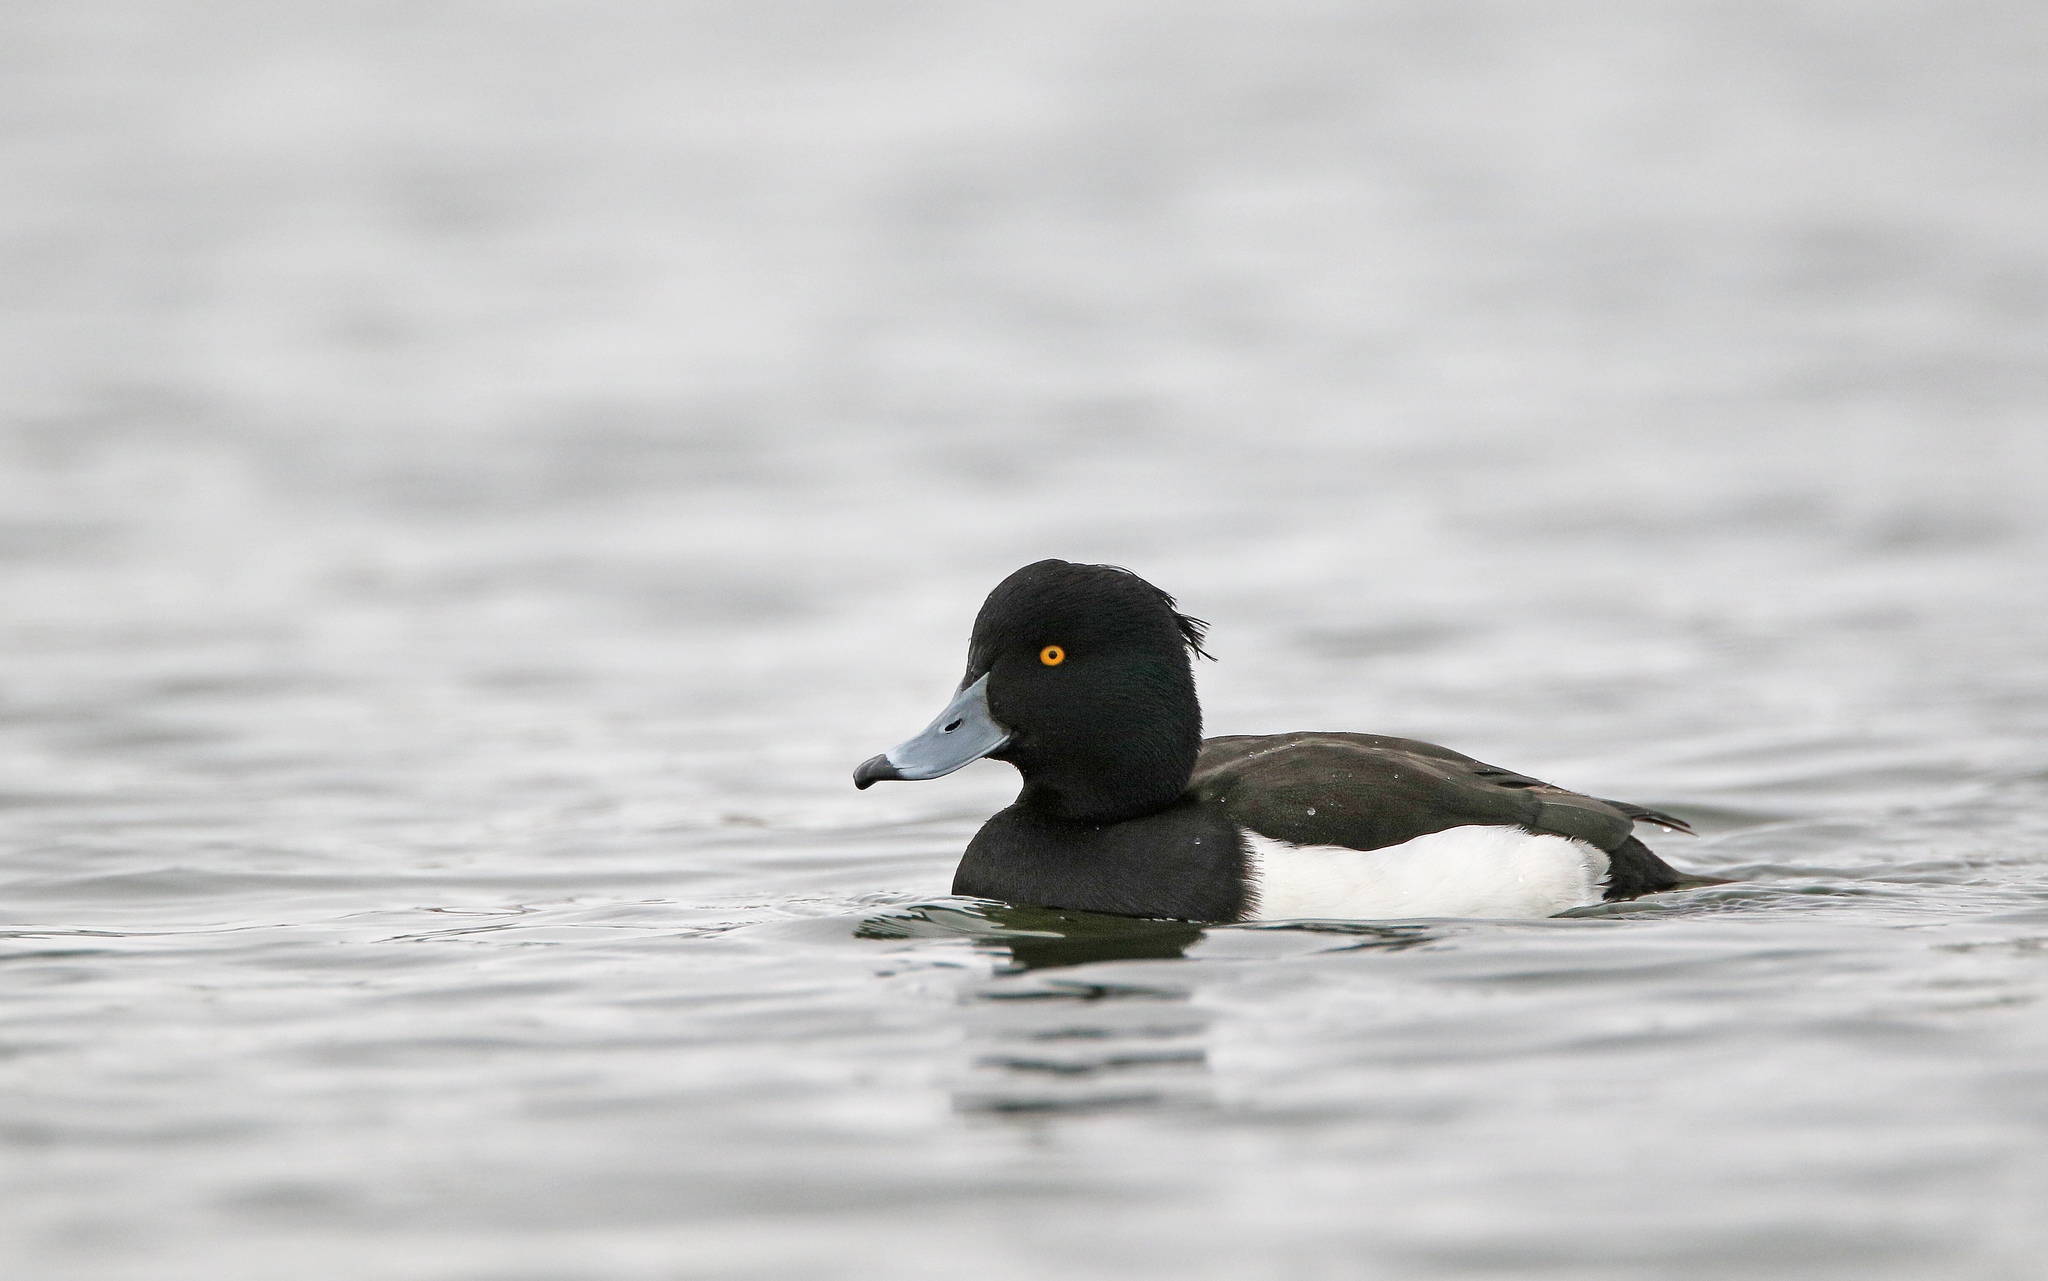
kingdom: Animalia
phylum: Chordata
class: Aves
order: Anseriformes
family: Anatidae
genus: Aythya
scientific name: Aythya fuligula
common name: Tufted duck
